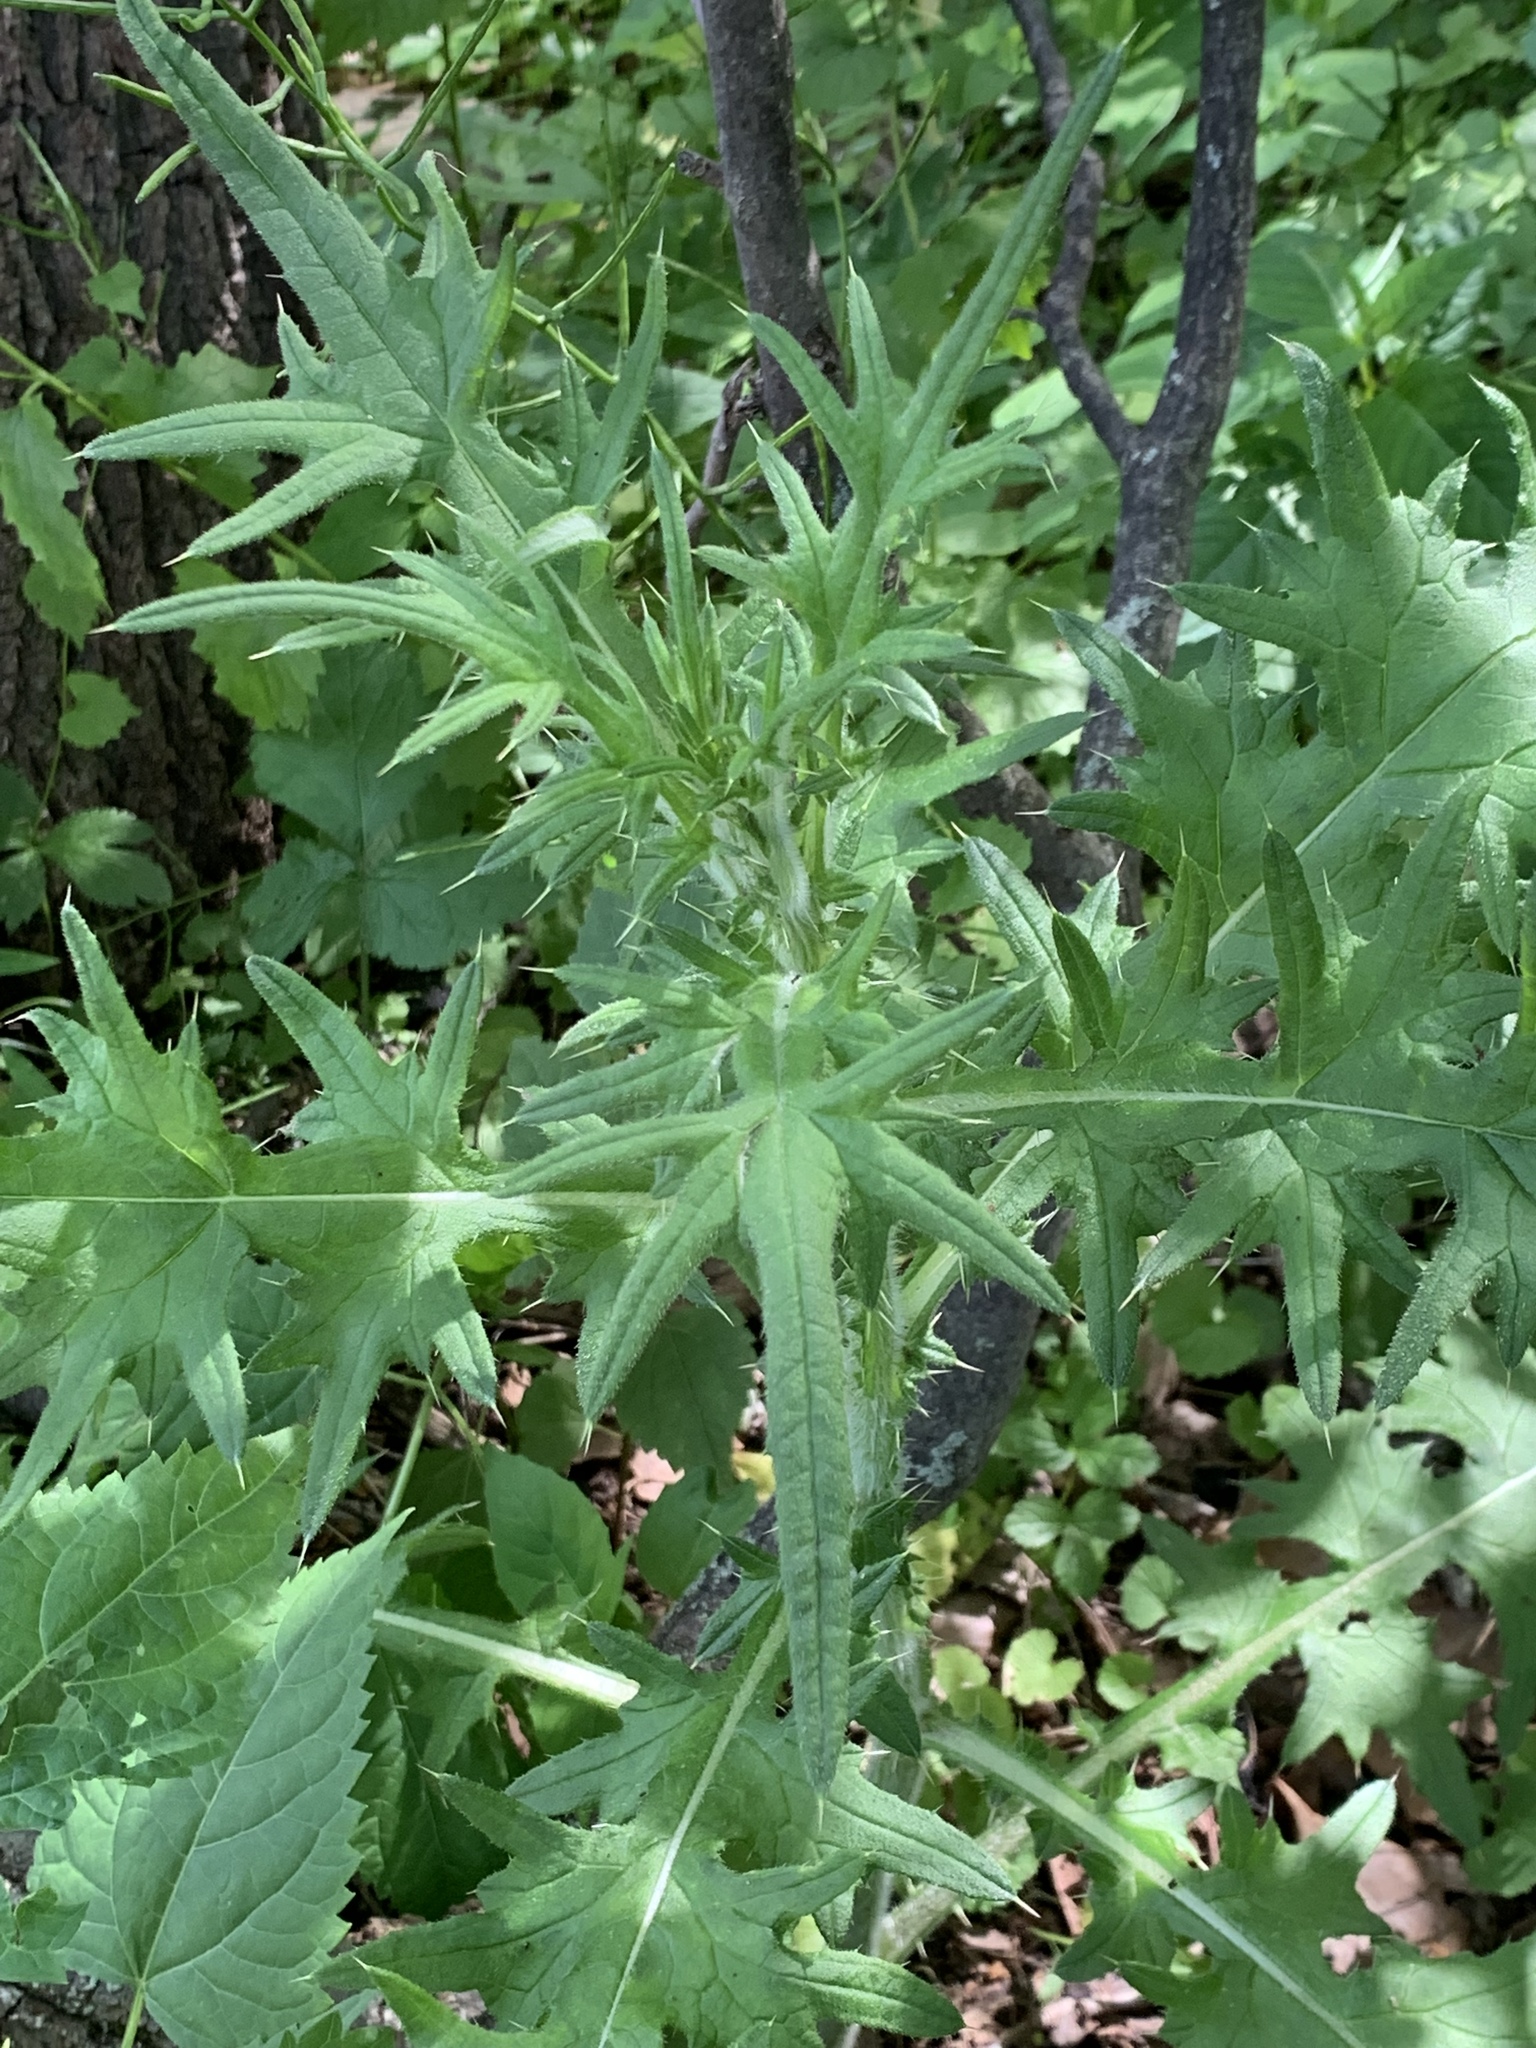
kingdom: Plantae
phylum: Tracheophyta
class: Magnoliopsida
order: Asterales
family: Asteraceae
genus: Cirsium
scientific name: Cirsium vulgare
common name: Bull thistle
